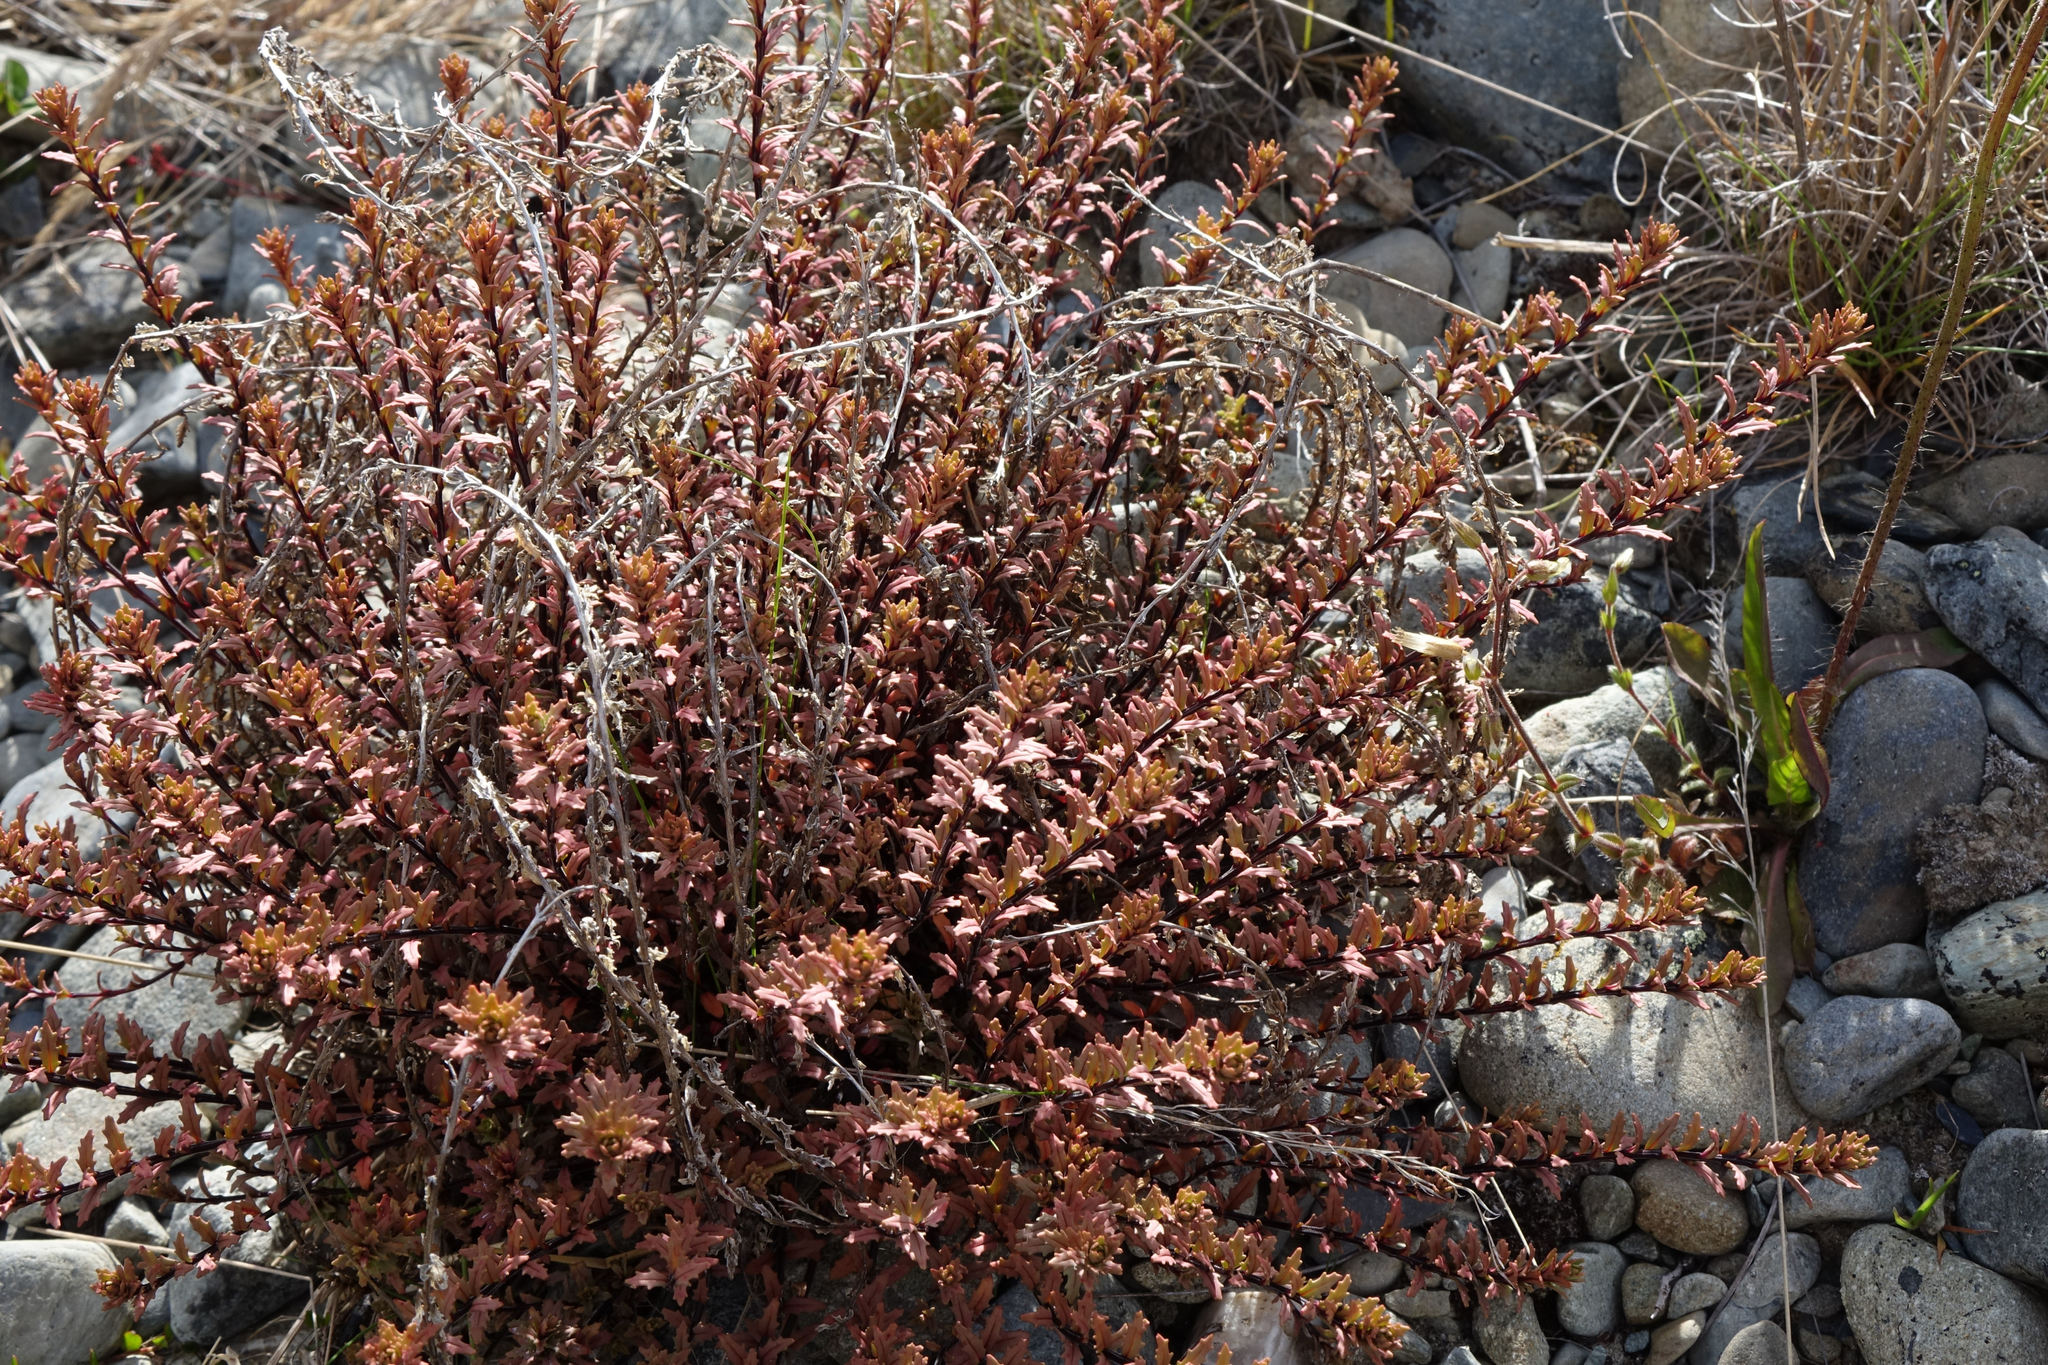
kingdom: Plantae
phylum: Tracheophyta
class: Magnoliopsida
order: Myrtales
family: Onagraceae
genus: Epilobium
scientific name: Epilobium melanocaulon
